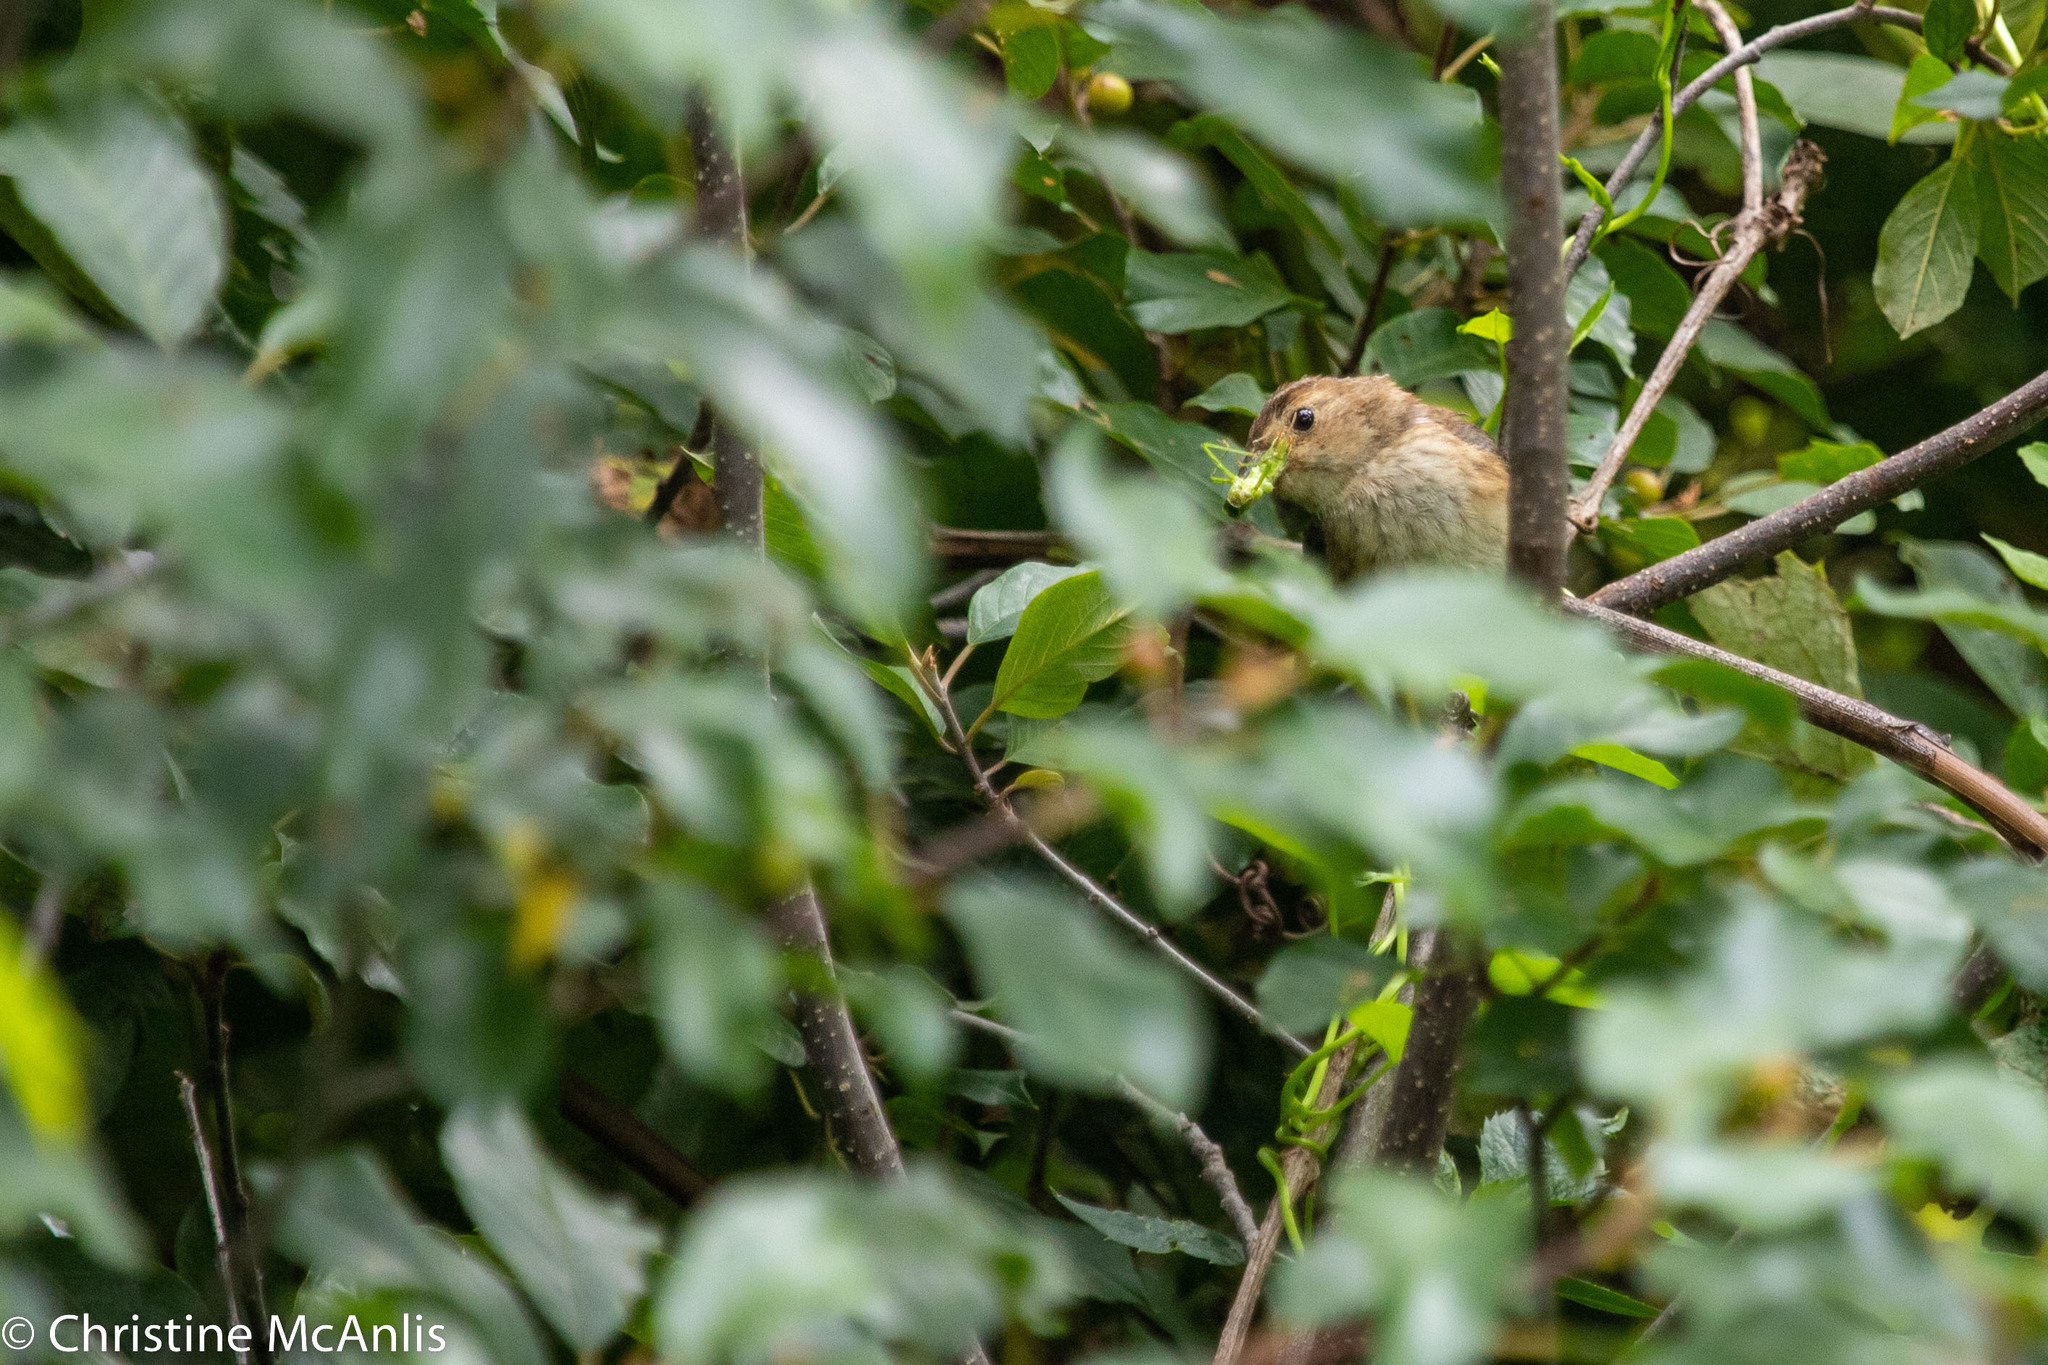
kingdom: Animalia
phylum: Chordata
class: Aves
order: Passeriformes
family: Cardinalidae
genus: Passerina
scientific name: Passerina cyanea
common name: Indigo bunting
